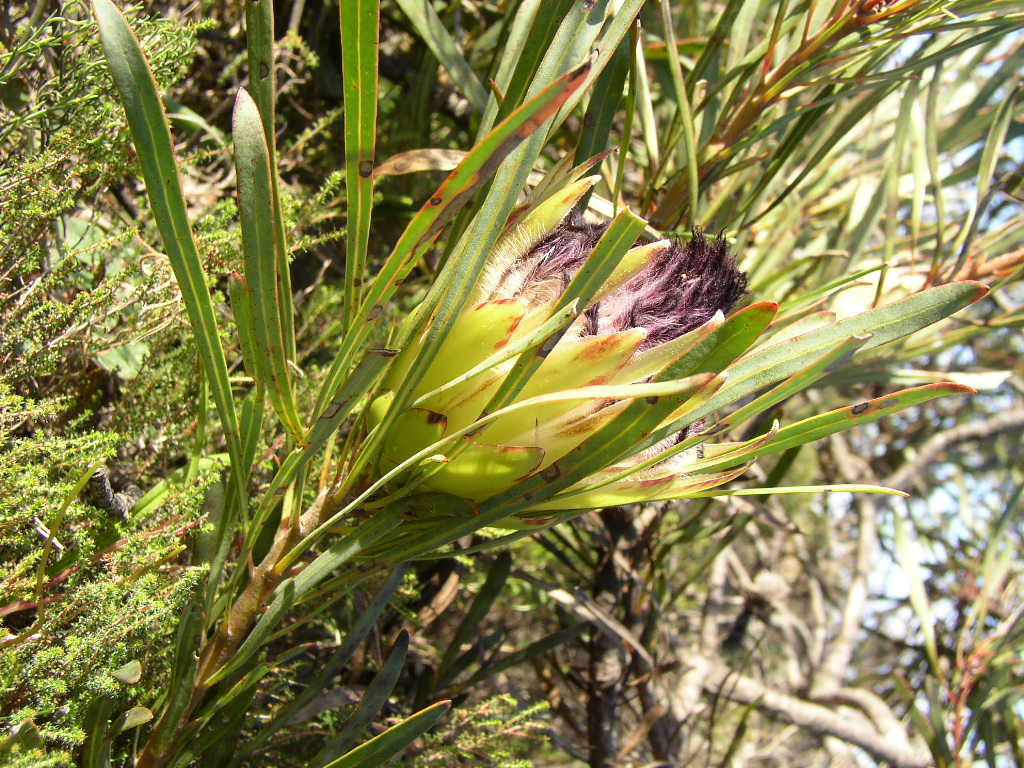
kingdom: Plantae
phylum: Tracheophyta
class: Magnoliopsida
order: Proteales
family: Proteaceae
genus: Protea
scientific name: Protea longifolia
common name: Long-leaf sugarbush
